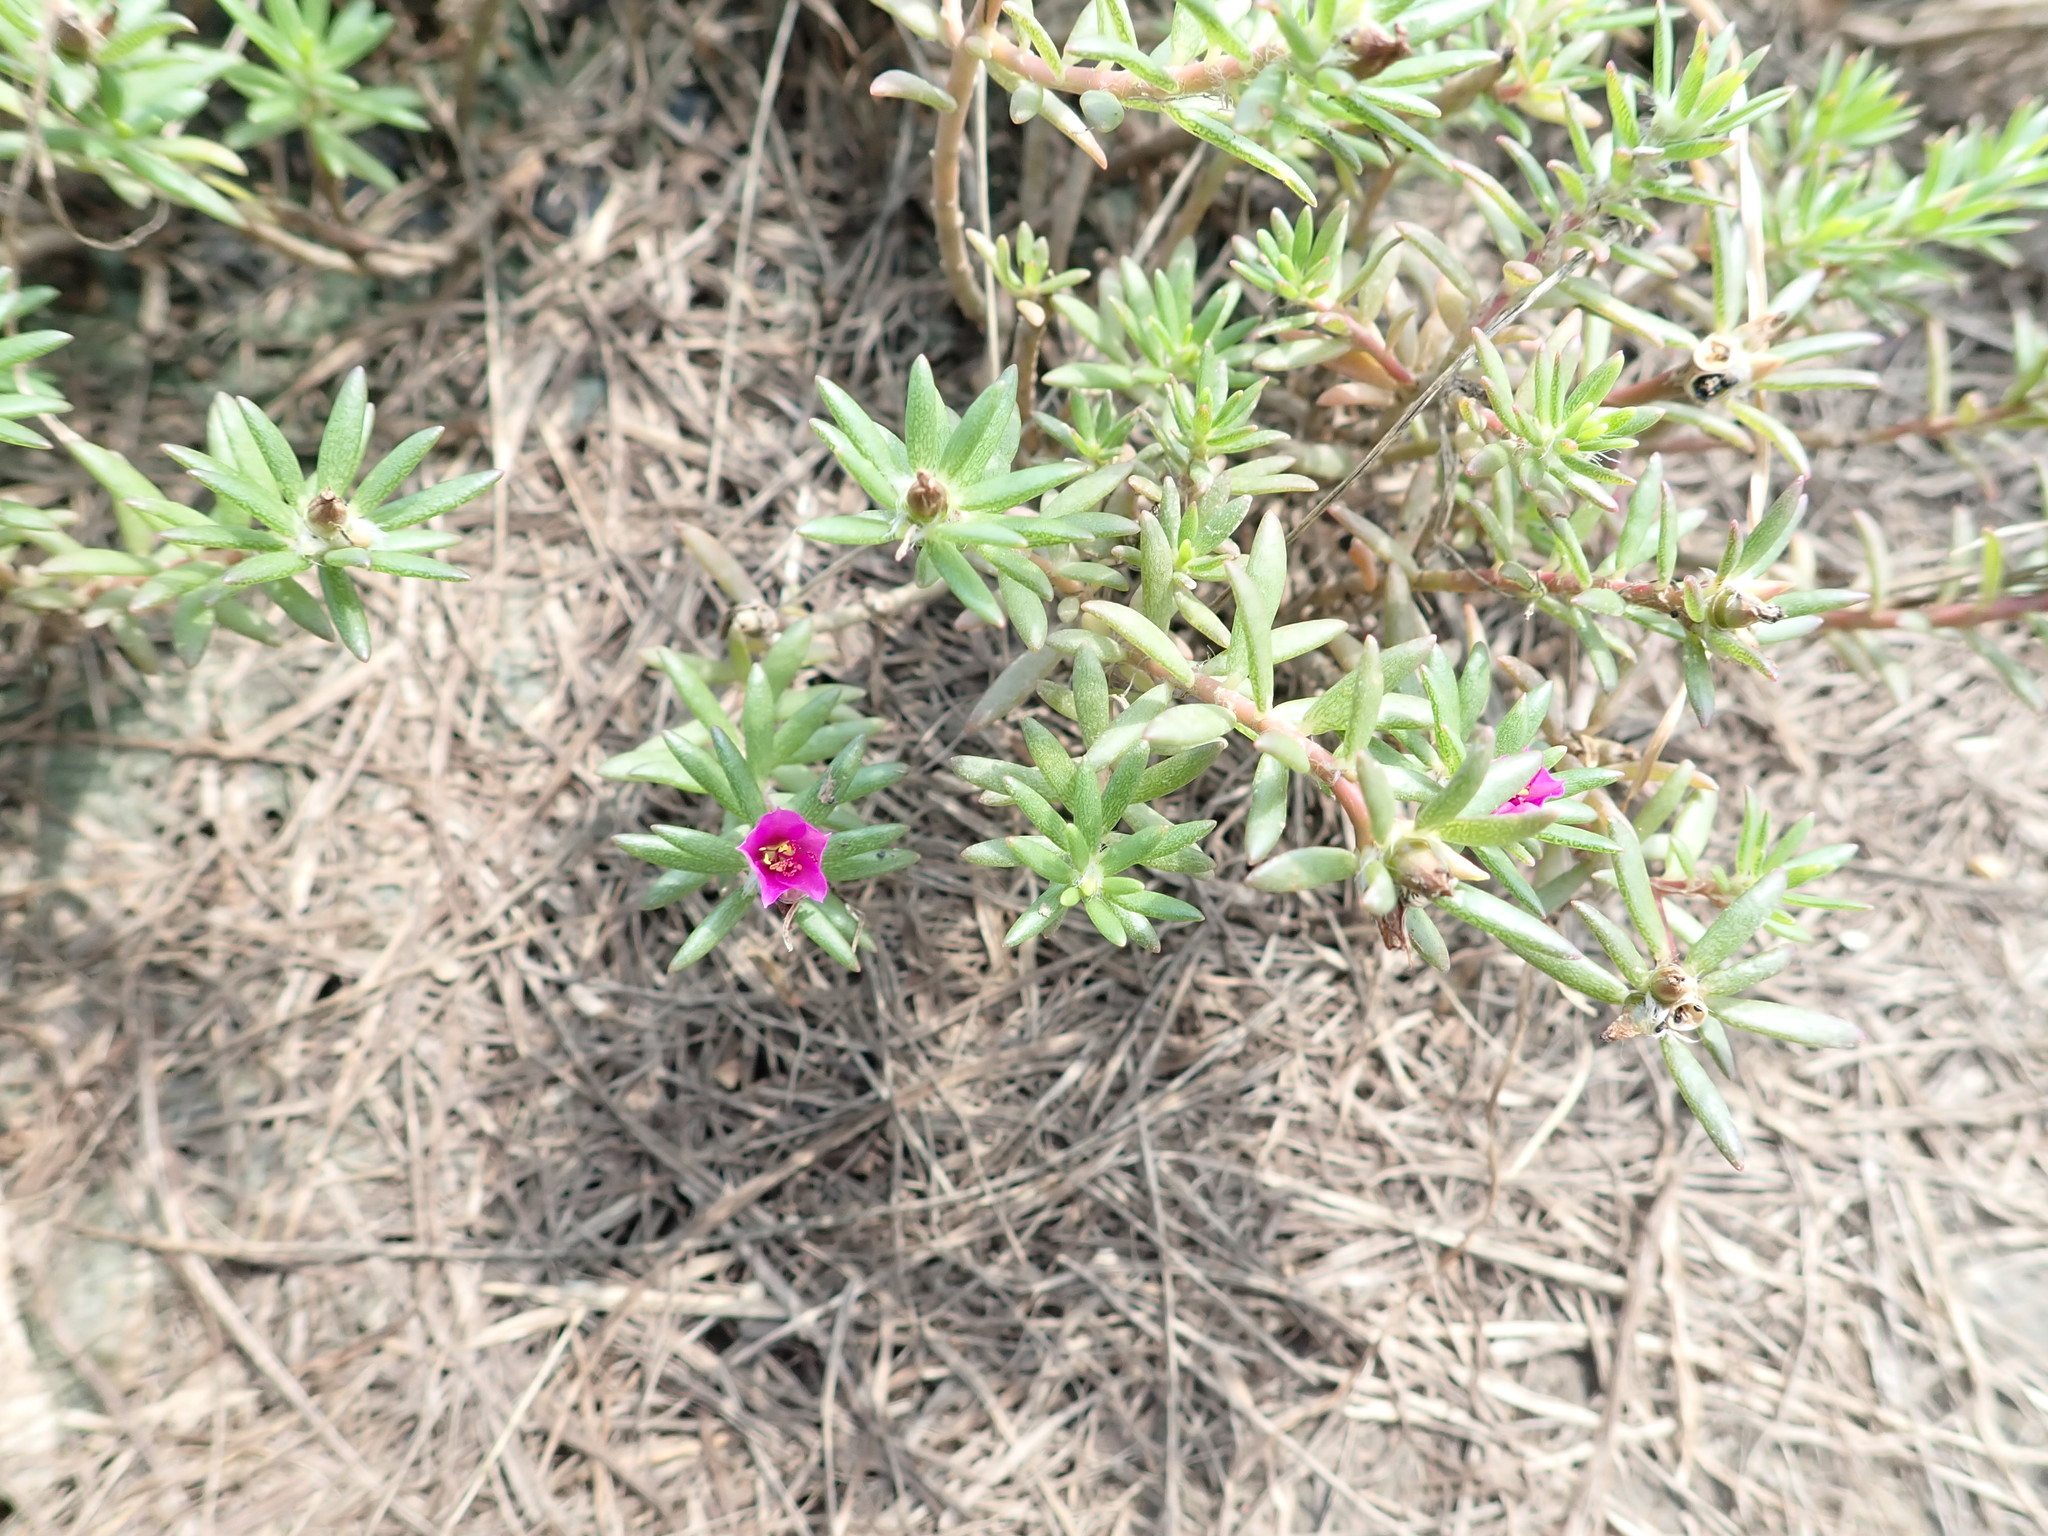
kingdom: Plantae
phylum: Tracheophyta
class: Magnoliopsida
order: Caryophyllales
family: Portulacaceae
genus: Portulaca
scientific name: Portulaca pilosa
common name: Kiss me quick
